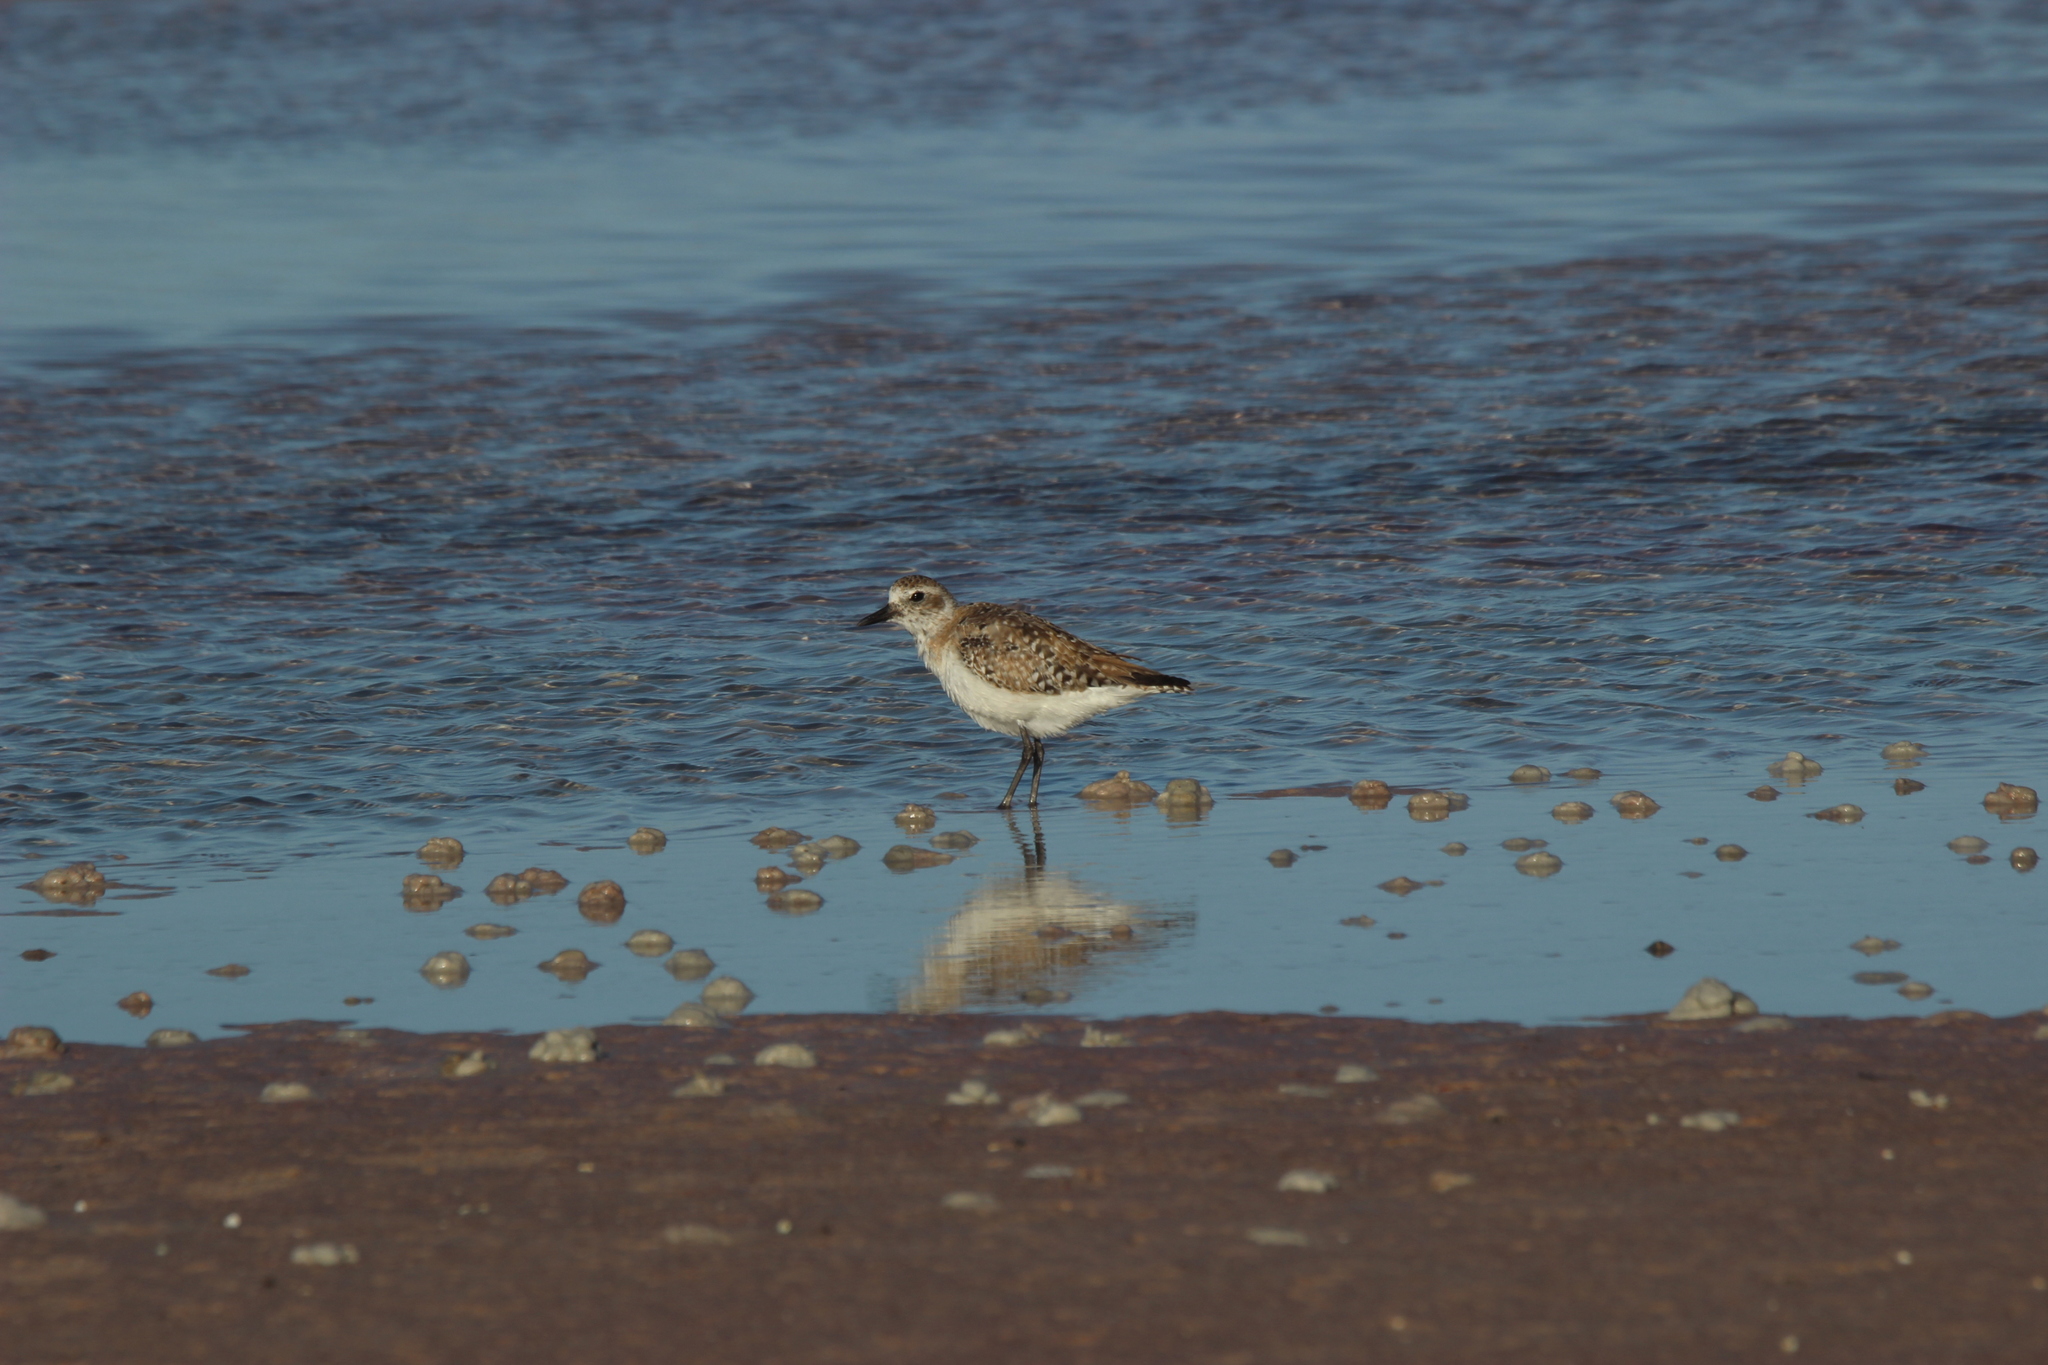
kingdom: Animalia
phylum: Chordata
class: Aves
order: Charadriiformes
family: Charadriidae
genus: Pluvialis
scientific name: Pluvialis squatarola
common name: Grey plover
